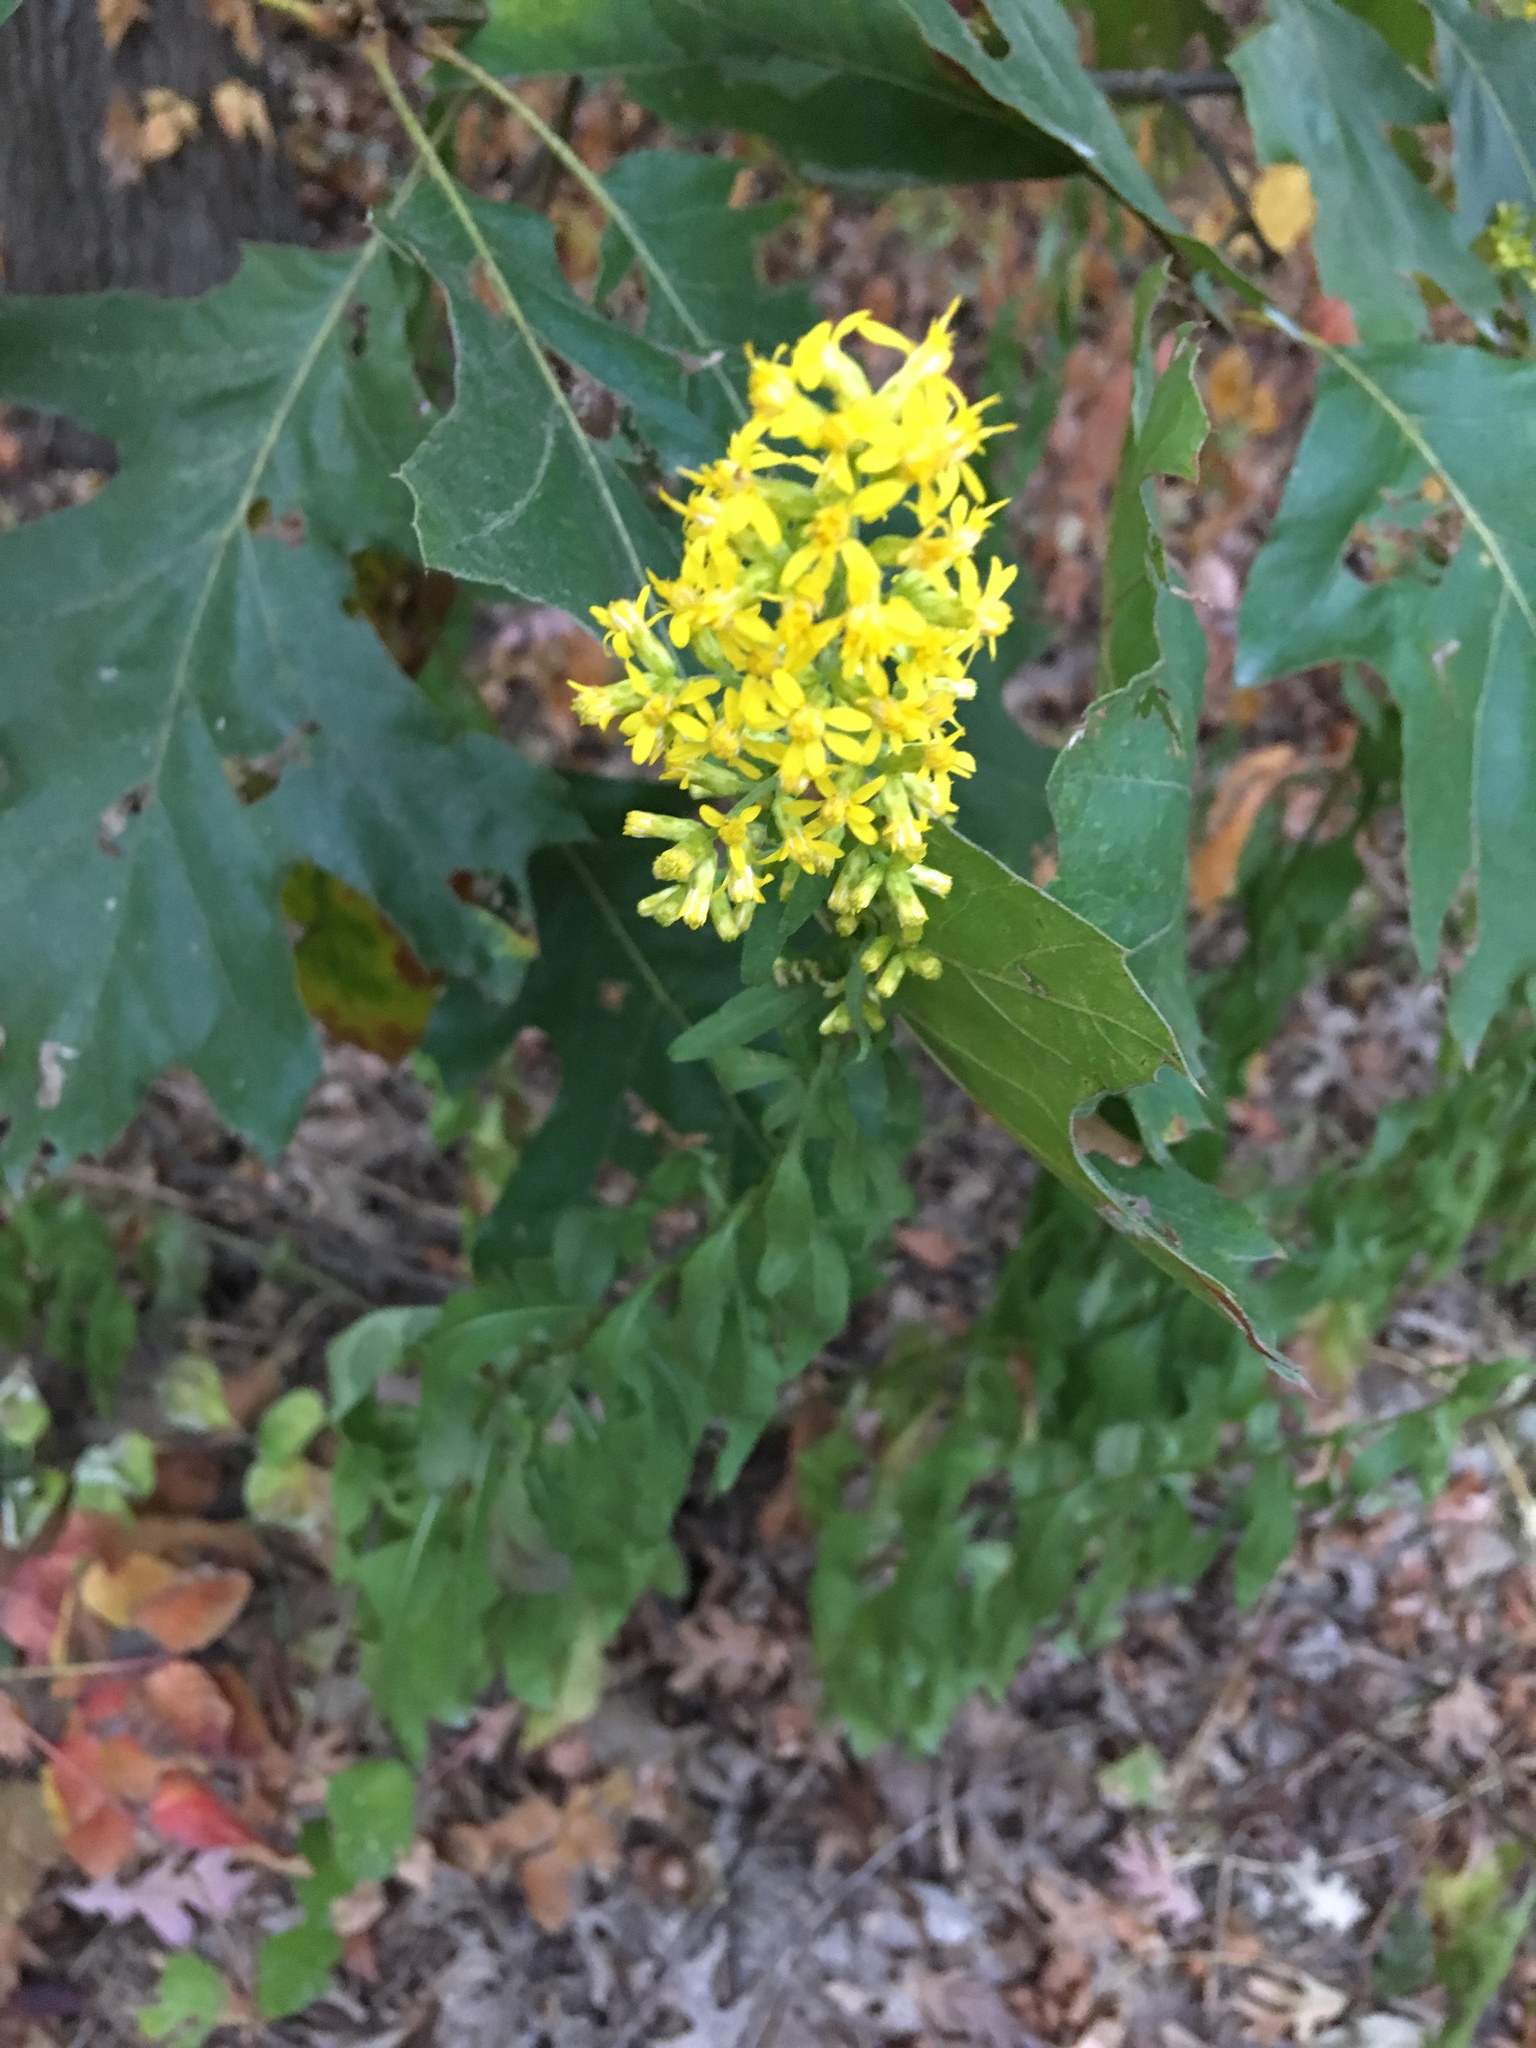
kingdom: Plantae
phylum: Tracheophyta
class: Magnoliopsida
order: Asterales
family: Asteraceae
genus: Solidago
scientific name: Solidago speciosa
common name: Showy goldenrod
